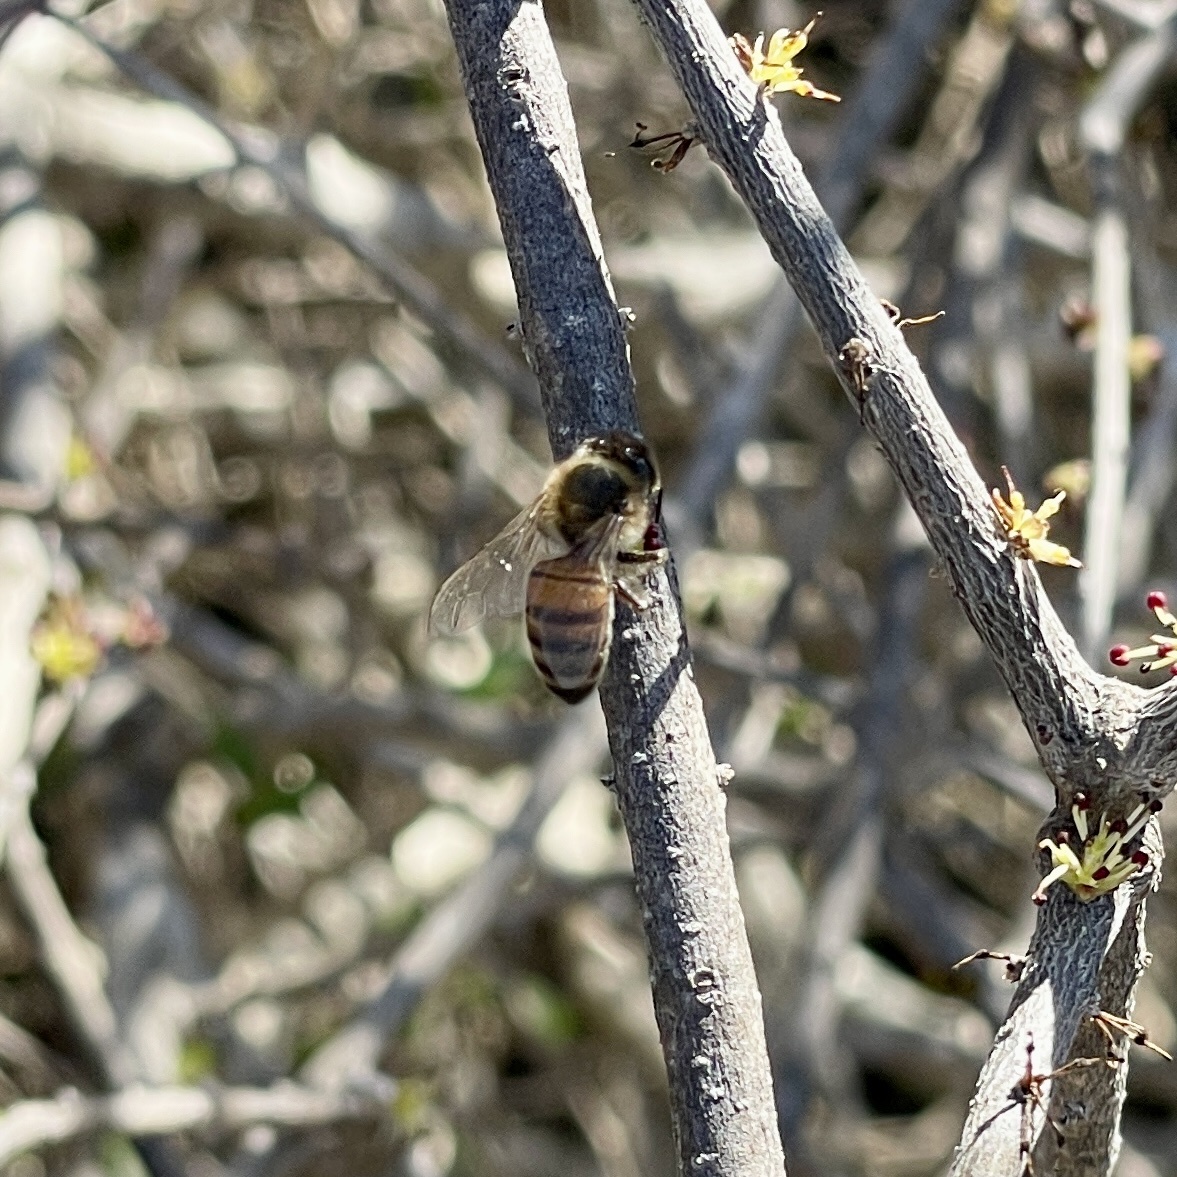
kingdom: Animalia
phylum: Arthropoda
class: Insecta
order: Hymenoptera
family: Apidae
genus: Apis
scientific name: Apis mellifera
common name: Honey bee
